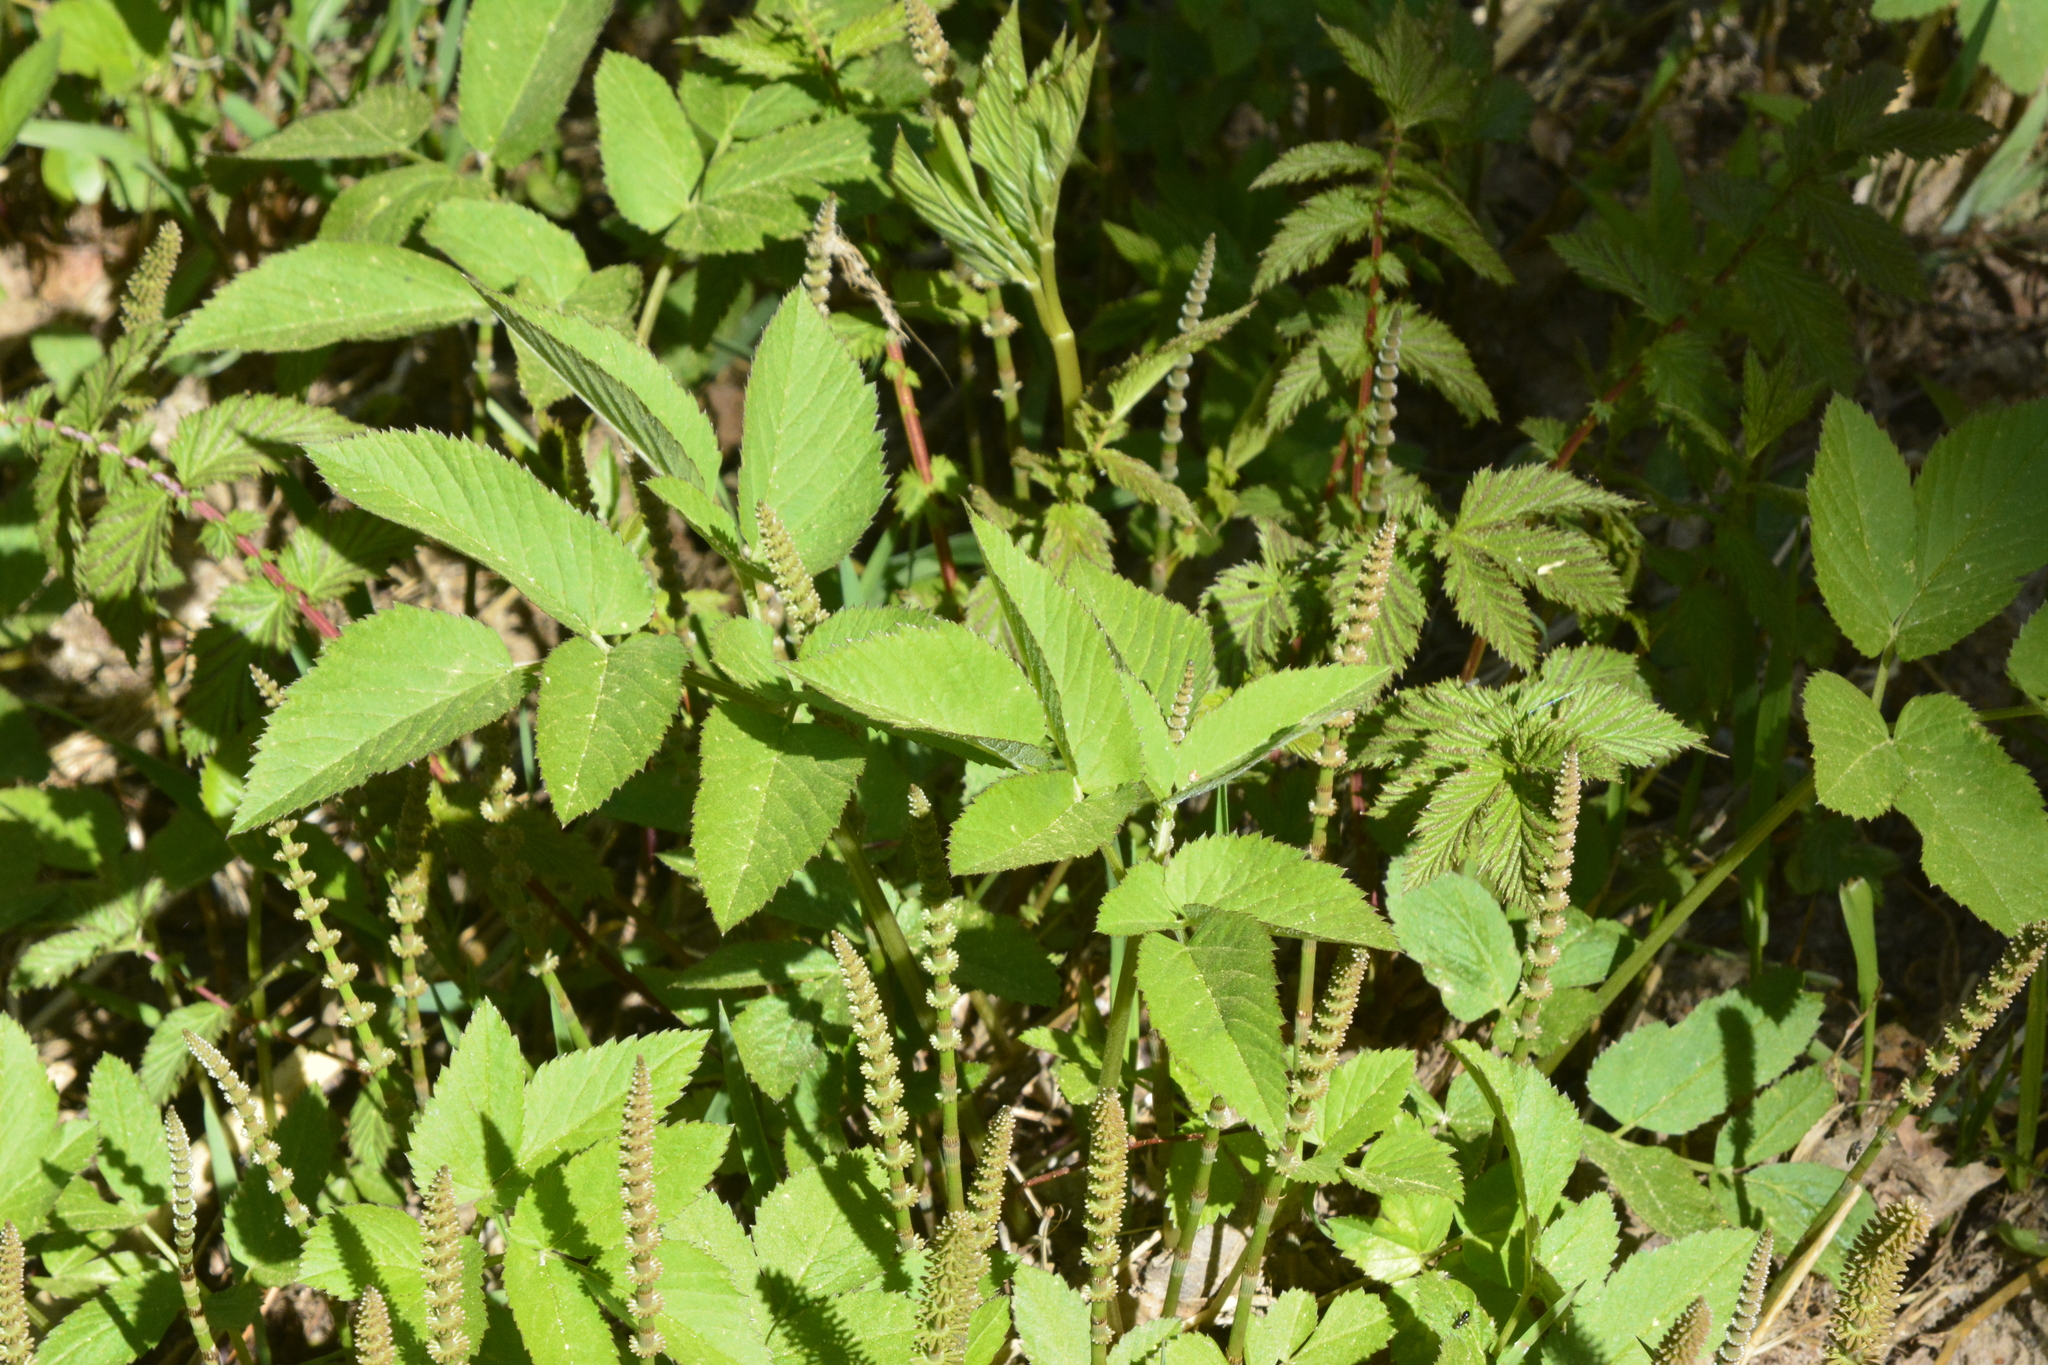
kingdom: Plantae
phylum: Tracheophyta
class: Magnoliopsida
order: Apiales
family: Apiaceae
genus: Aegopodium
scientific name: Aegopodium podagraria
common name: Ground-elder
